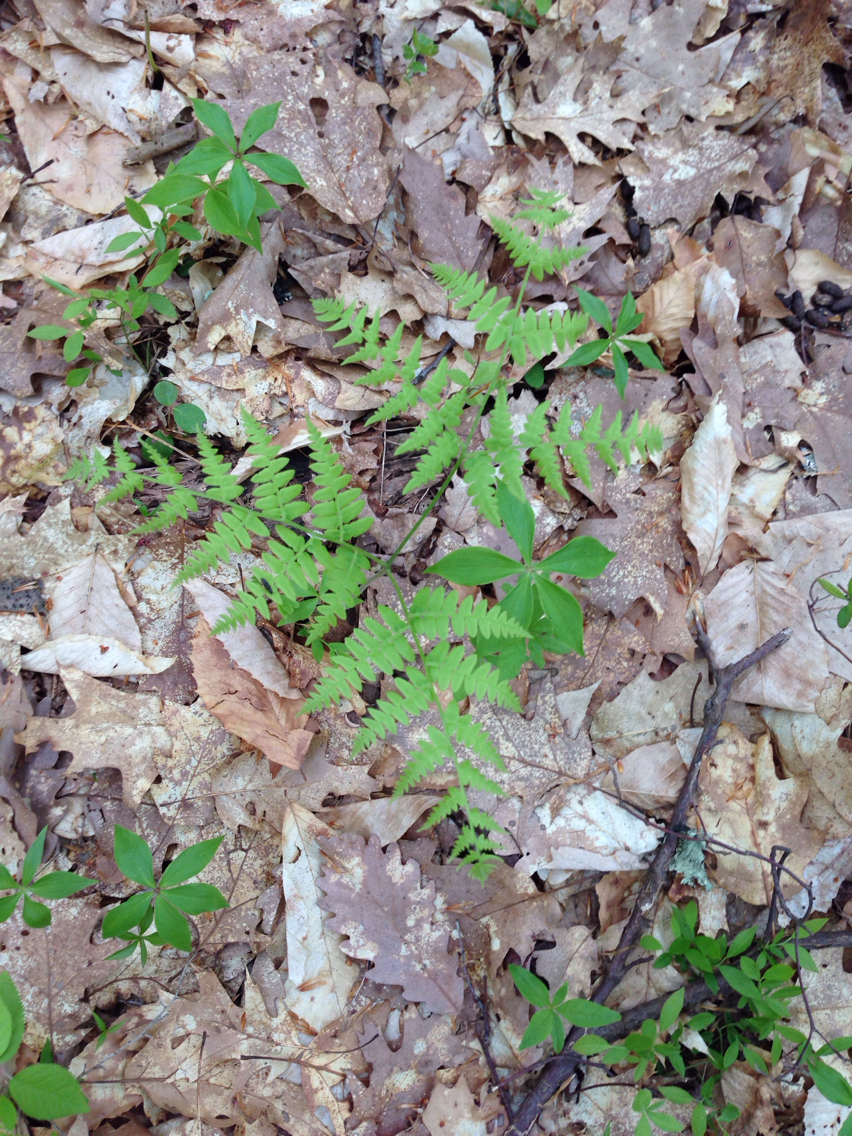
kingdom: Plantae
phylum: Tracheophyta
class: Polypodiopsida
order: Polypodiales
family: Dennstaedtiaceae
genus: Pteridium
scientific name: Pteridium aquilinum
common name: Bracken
